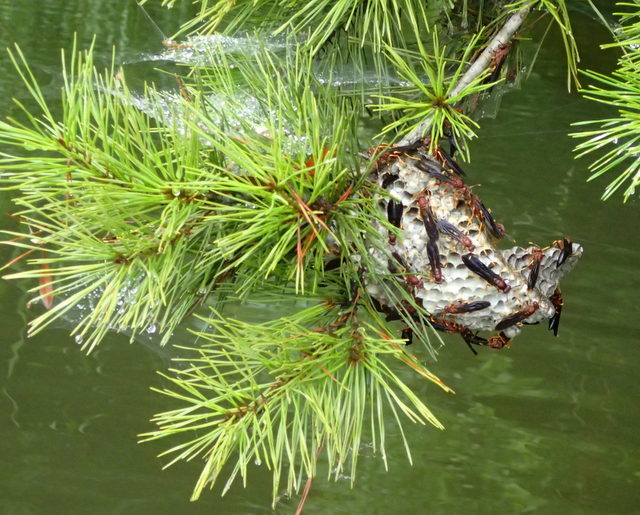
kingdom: Animalia
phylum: Arthropoda
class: Insecta
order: Hymenoptera
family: Eumenidae
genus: Polistes
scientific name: Polistes annularis
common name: Ringed paper wasp
